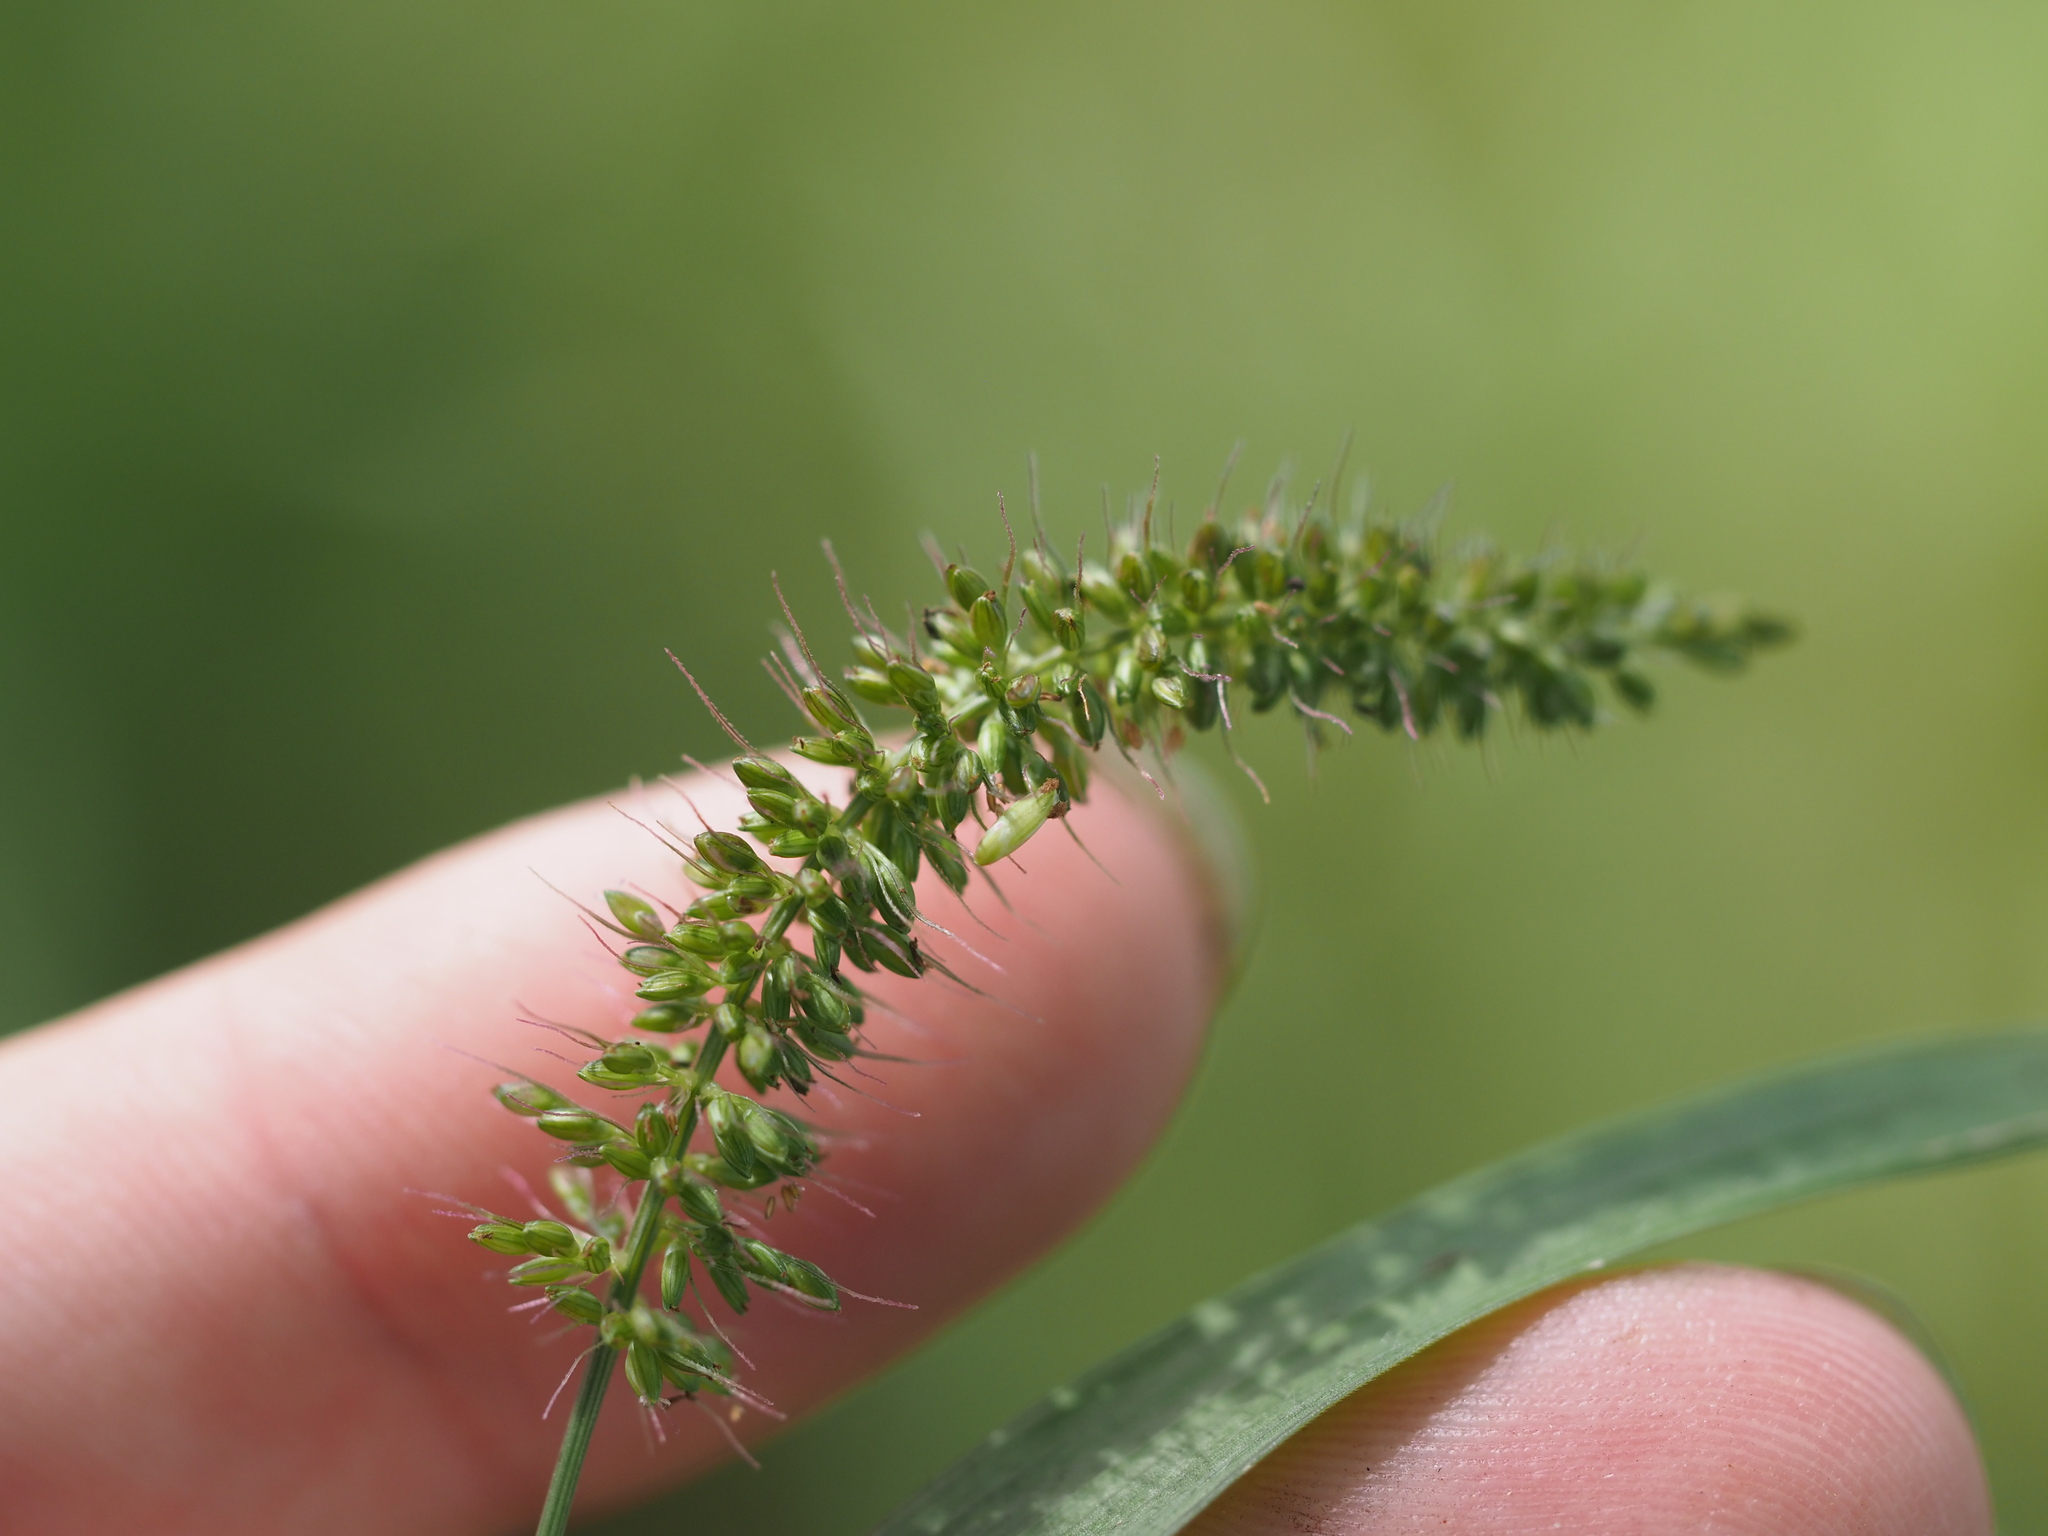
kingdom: Plantae
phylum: Tracheophyta
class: Liliopsida
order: Poales
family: Poaceae
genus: Setaria
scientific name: Setaria adhaerens
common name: Adherent bristle-grass
